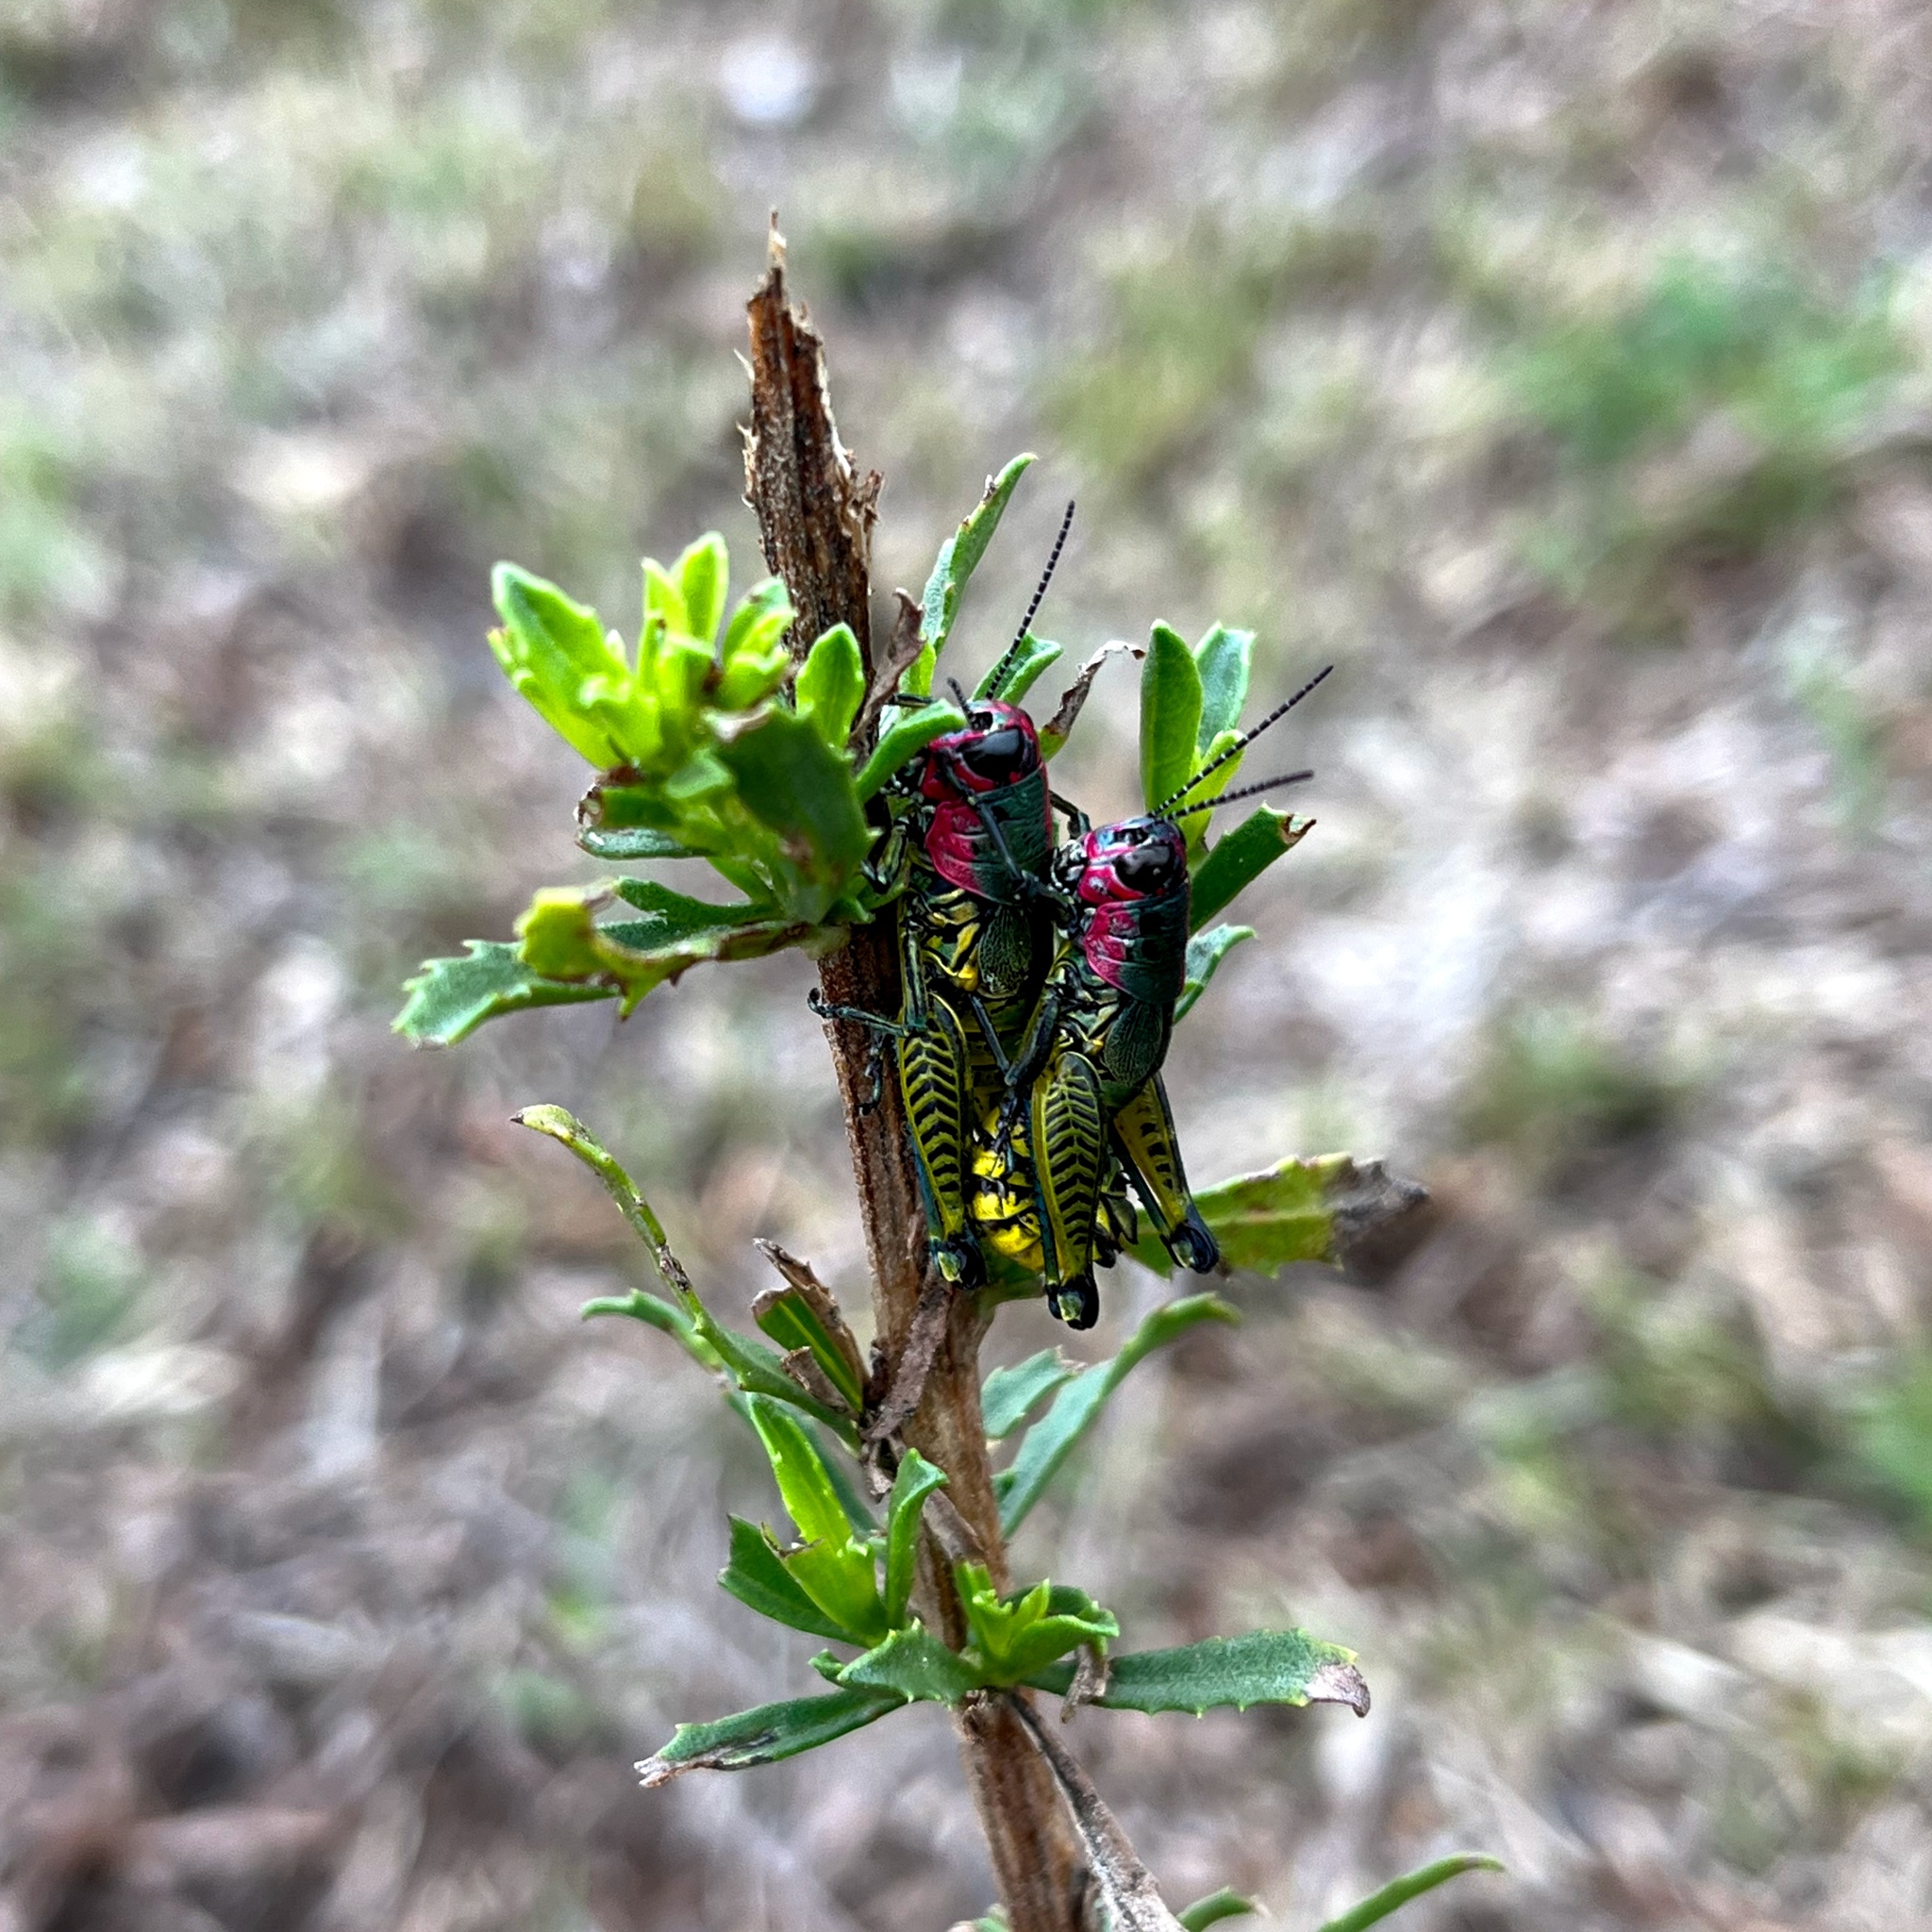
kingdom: Animalia
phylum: Arthropoda
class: Insecta
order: Orthoptera
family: Acrididae
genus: Aztecacris
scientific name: Aztecacris laevis
